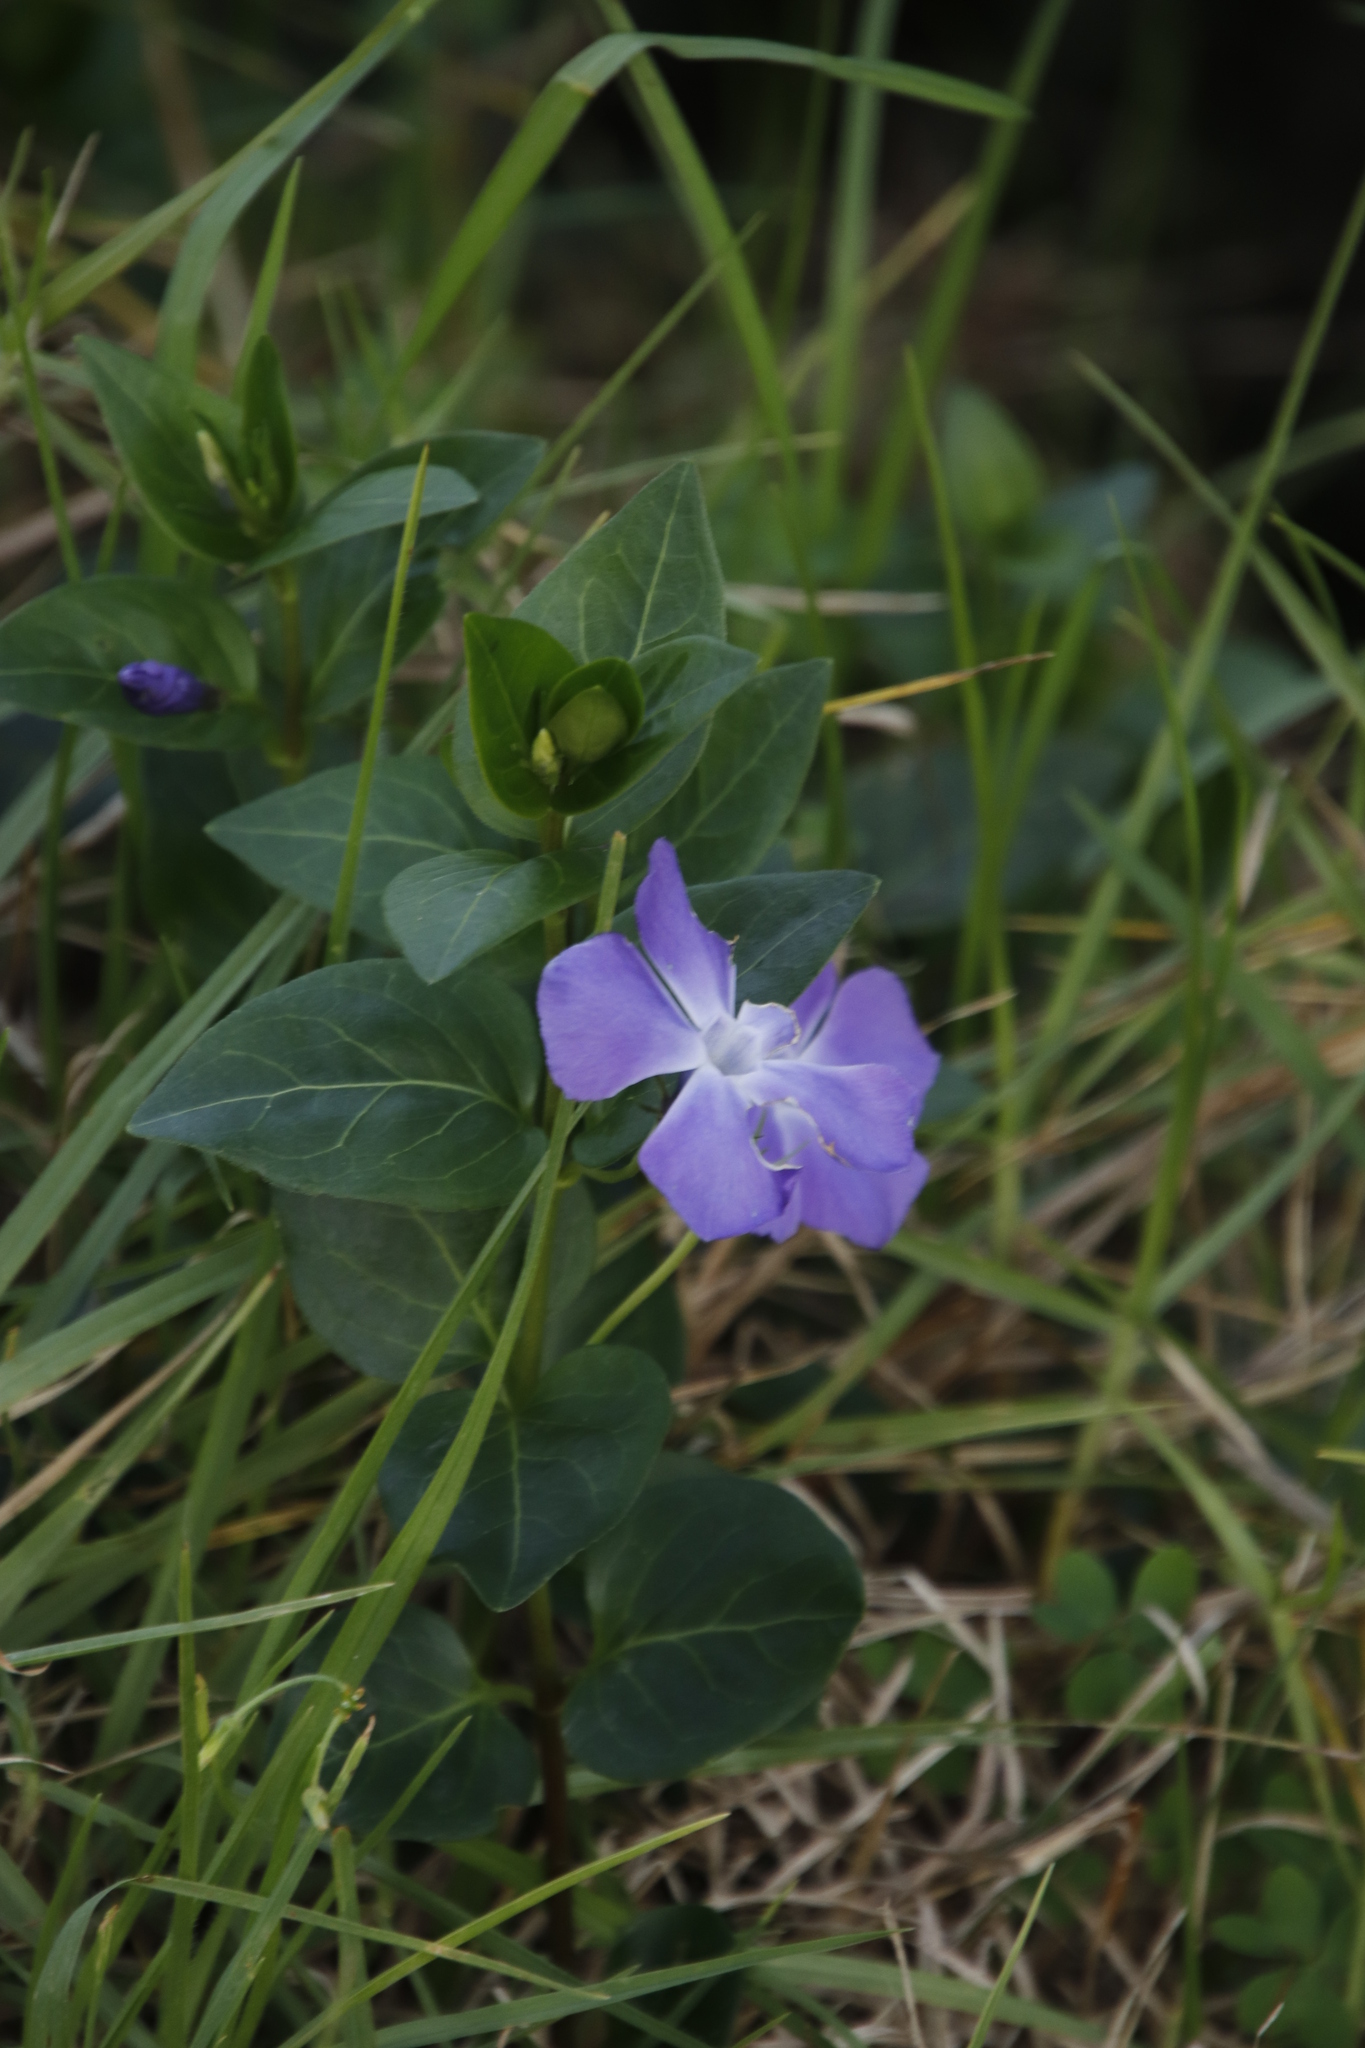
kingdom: Plantae
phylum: Tracheophyta
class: Magnoliopsida
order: Gentianales
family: Apocynaceae
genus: Vinca
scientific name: Vinca major
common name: Greater periwinkle
